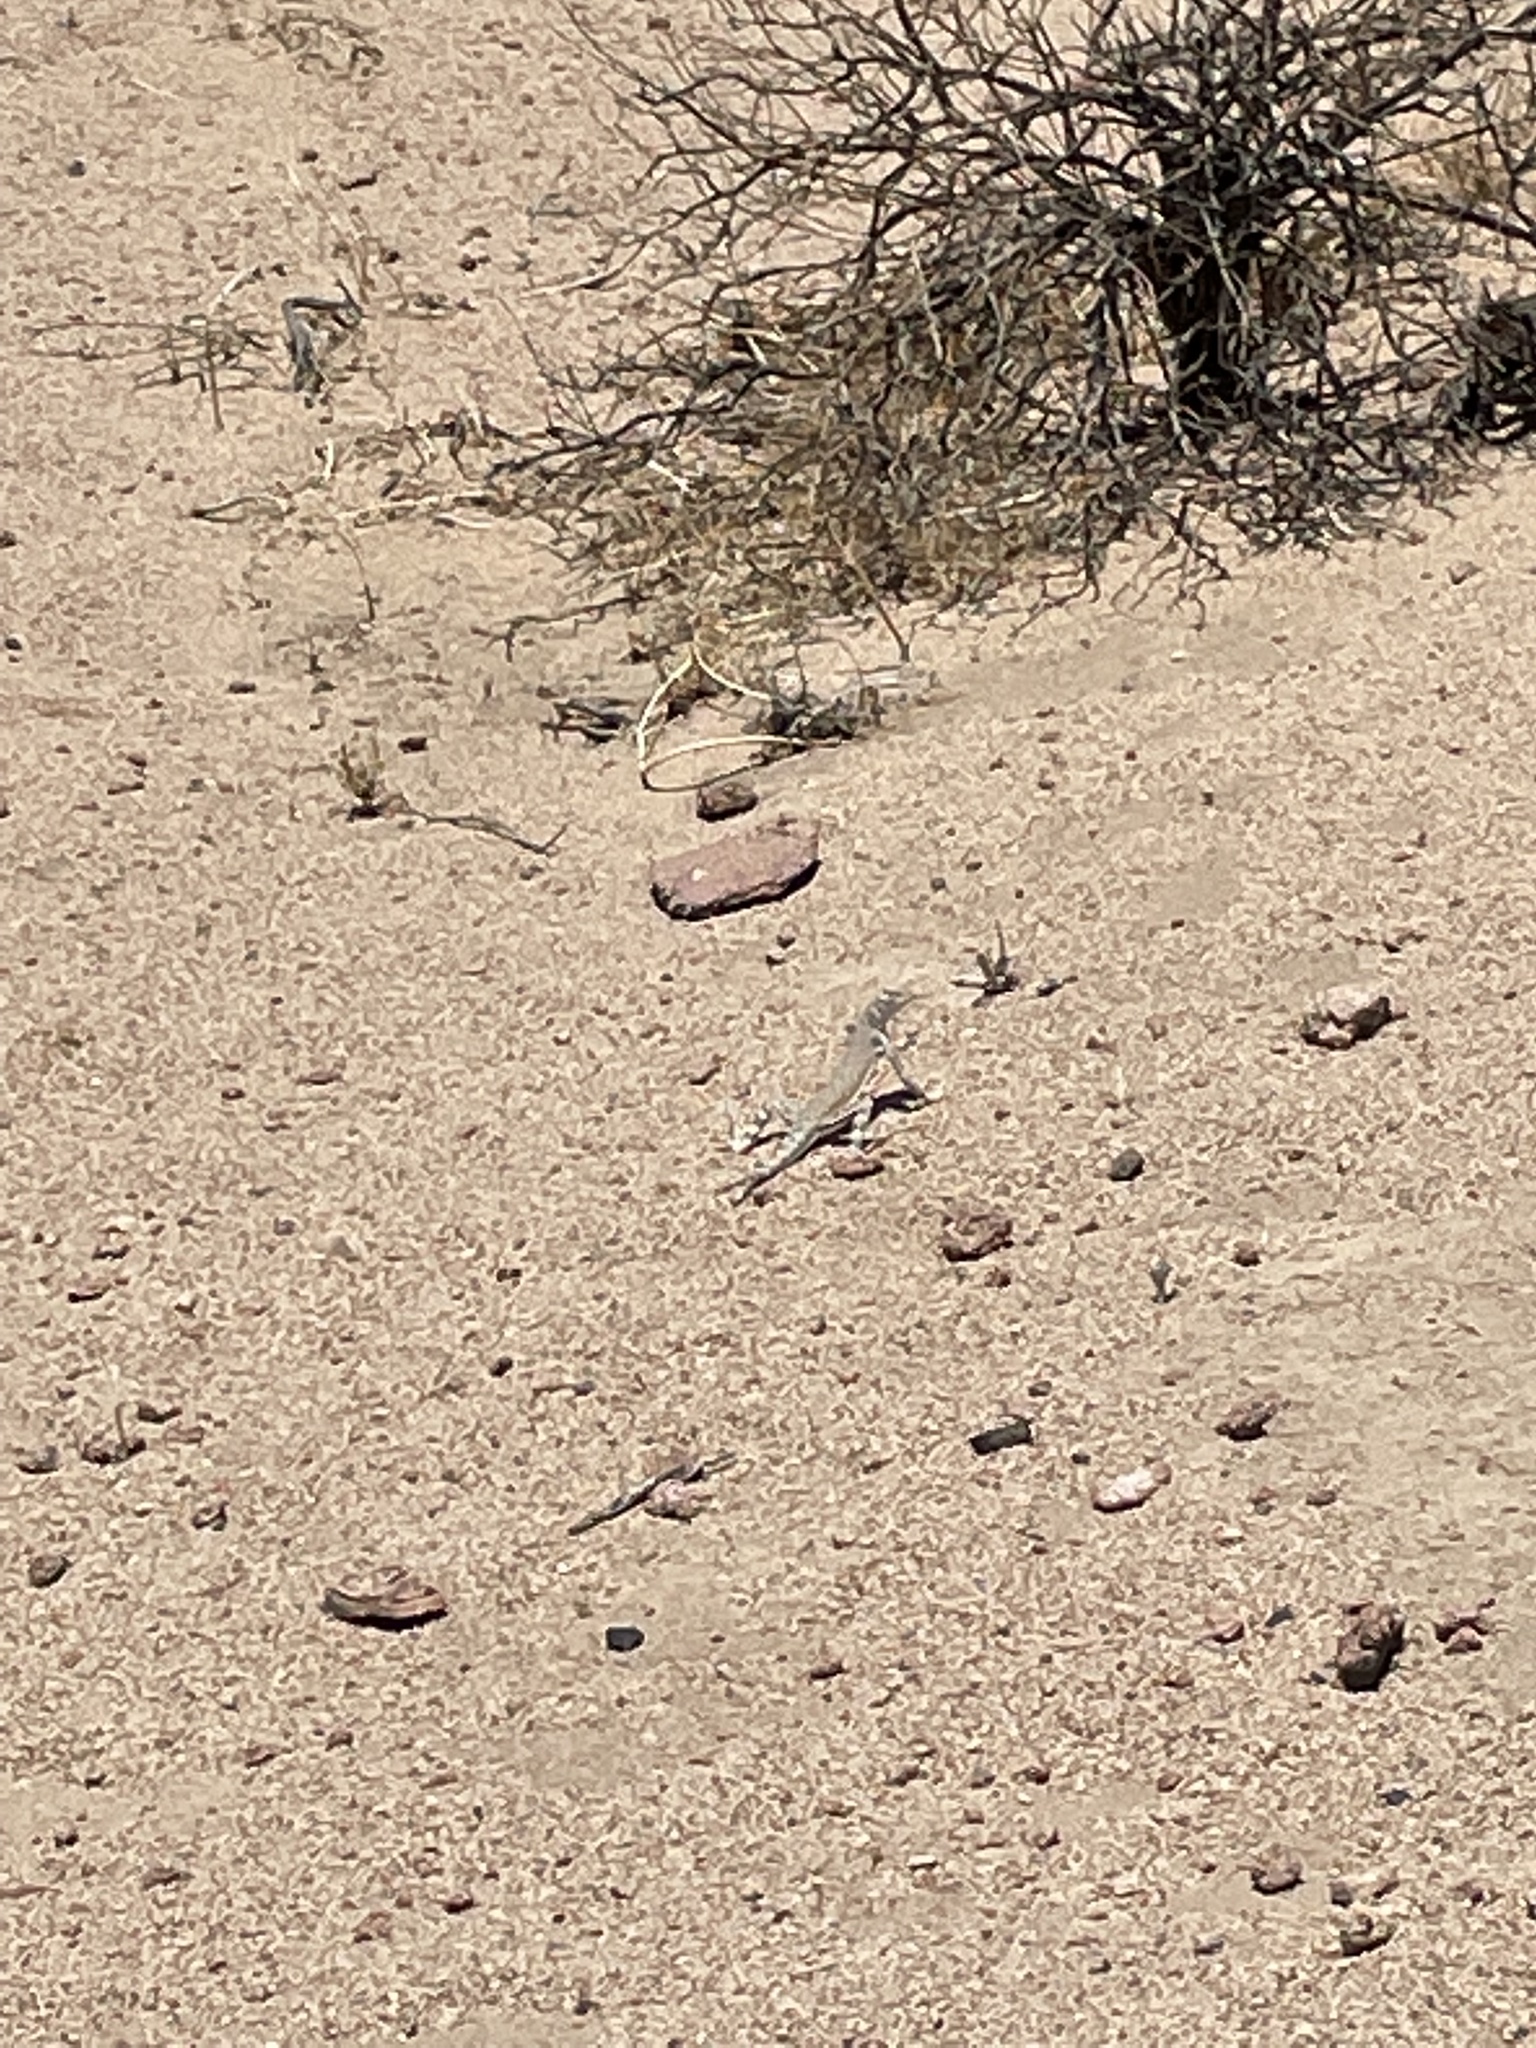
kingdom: Animalia
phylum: Chordata
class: Squamata
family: Phrynosomatidae
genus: Callisaurus
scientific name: Callisaurus draconoides
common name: Zebra-tailed lizard
